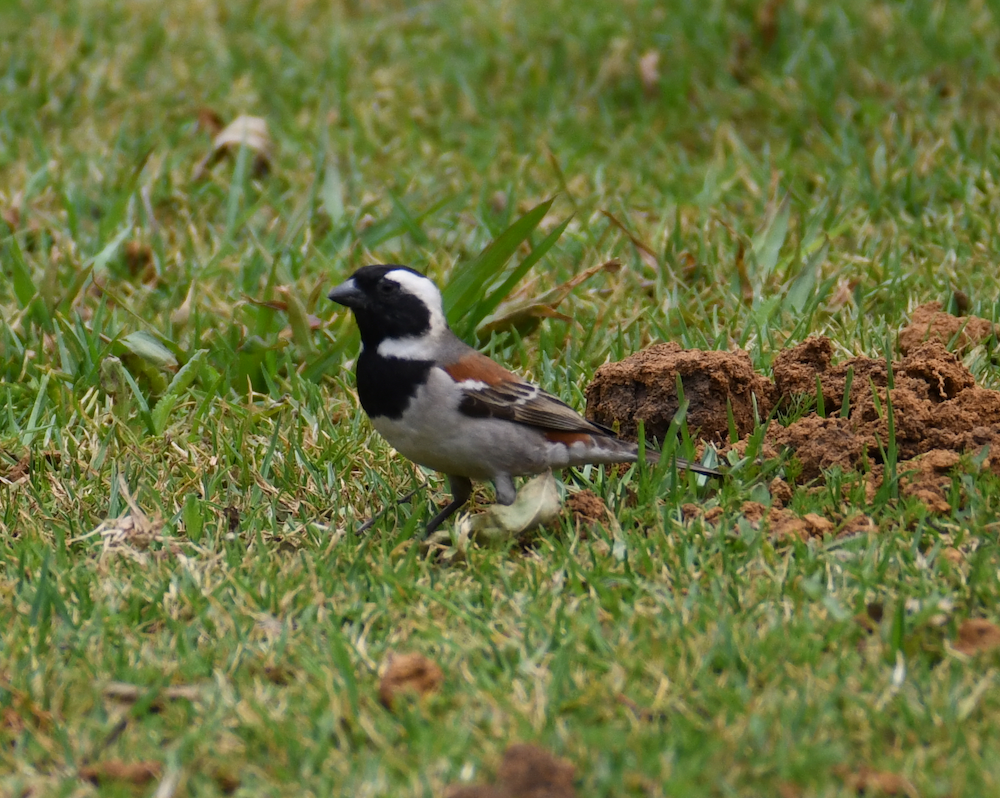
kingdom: Animalia
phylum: Chordata
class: Aves
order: Passeriformes
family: Passeridae
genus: Passer
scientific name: Passer melanurus
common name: Cape sparrow
